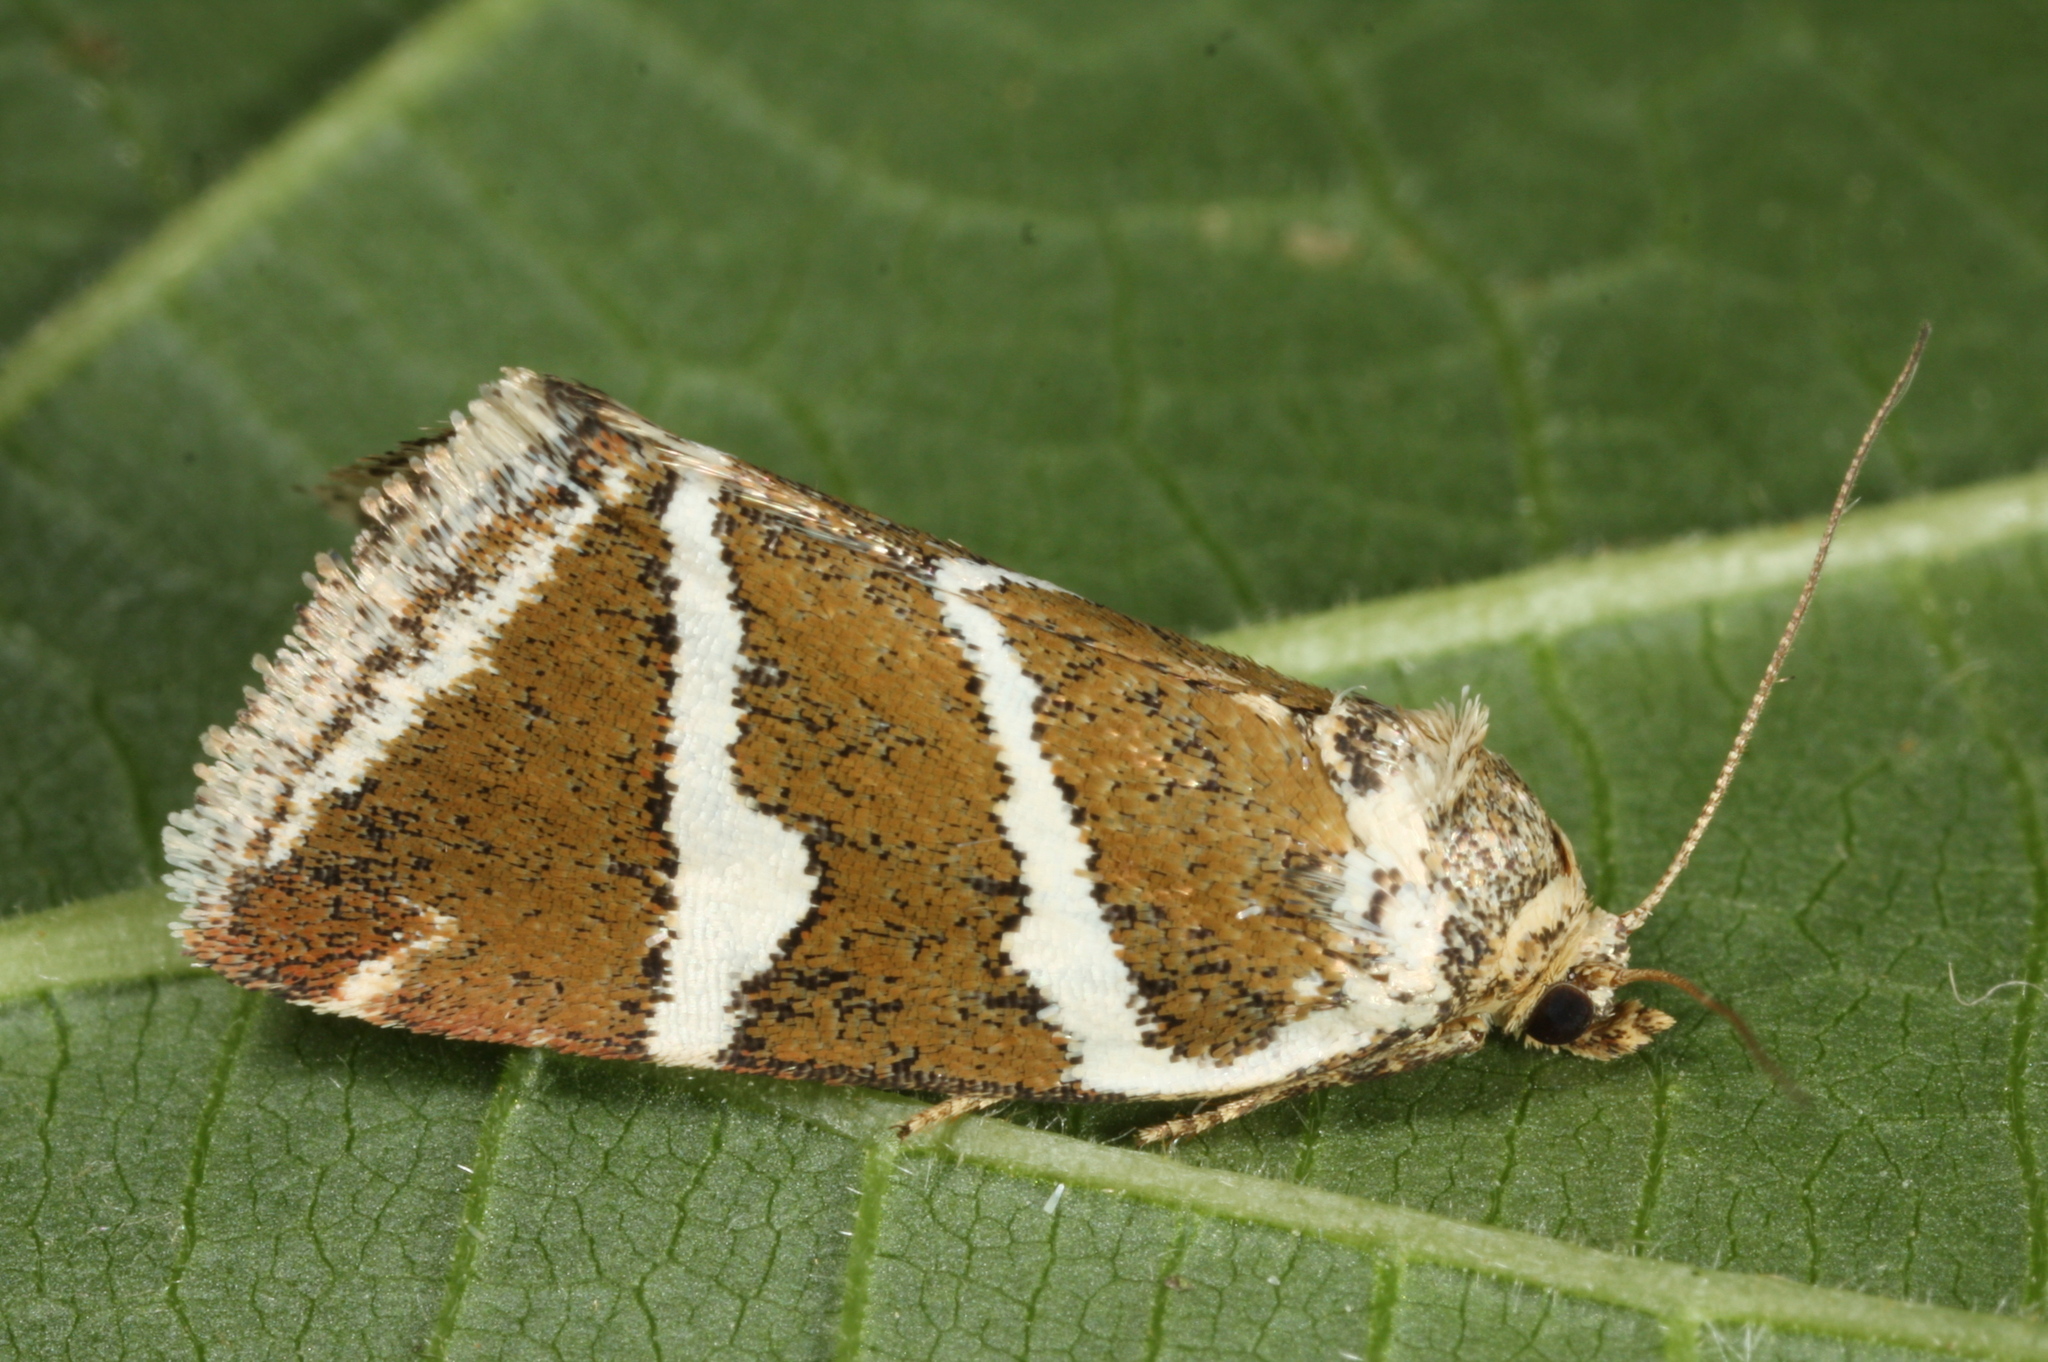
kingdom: Animalia
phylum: Arthropoda
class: Insecta
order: Lepidoptera
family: Noctuidae
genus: Deltote
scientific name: Deltote bankiana
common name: Silver barred
